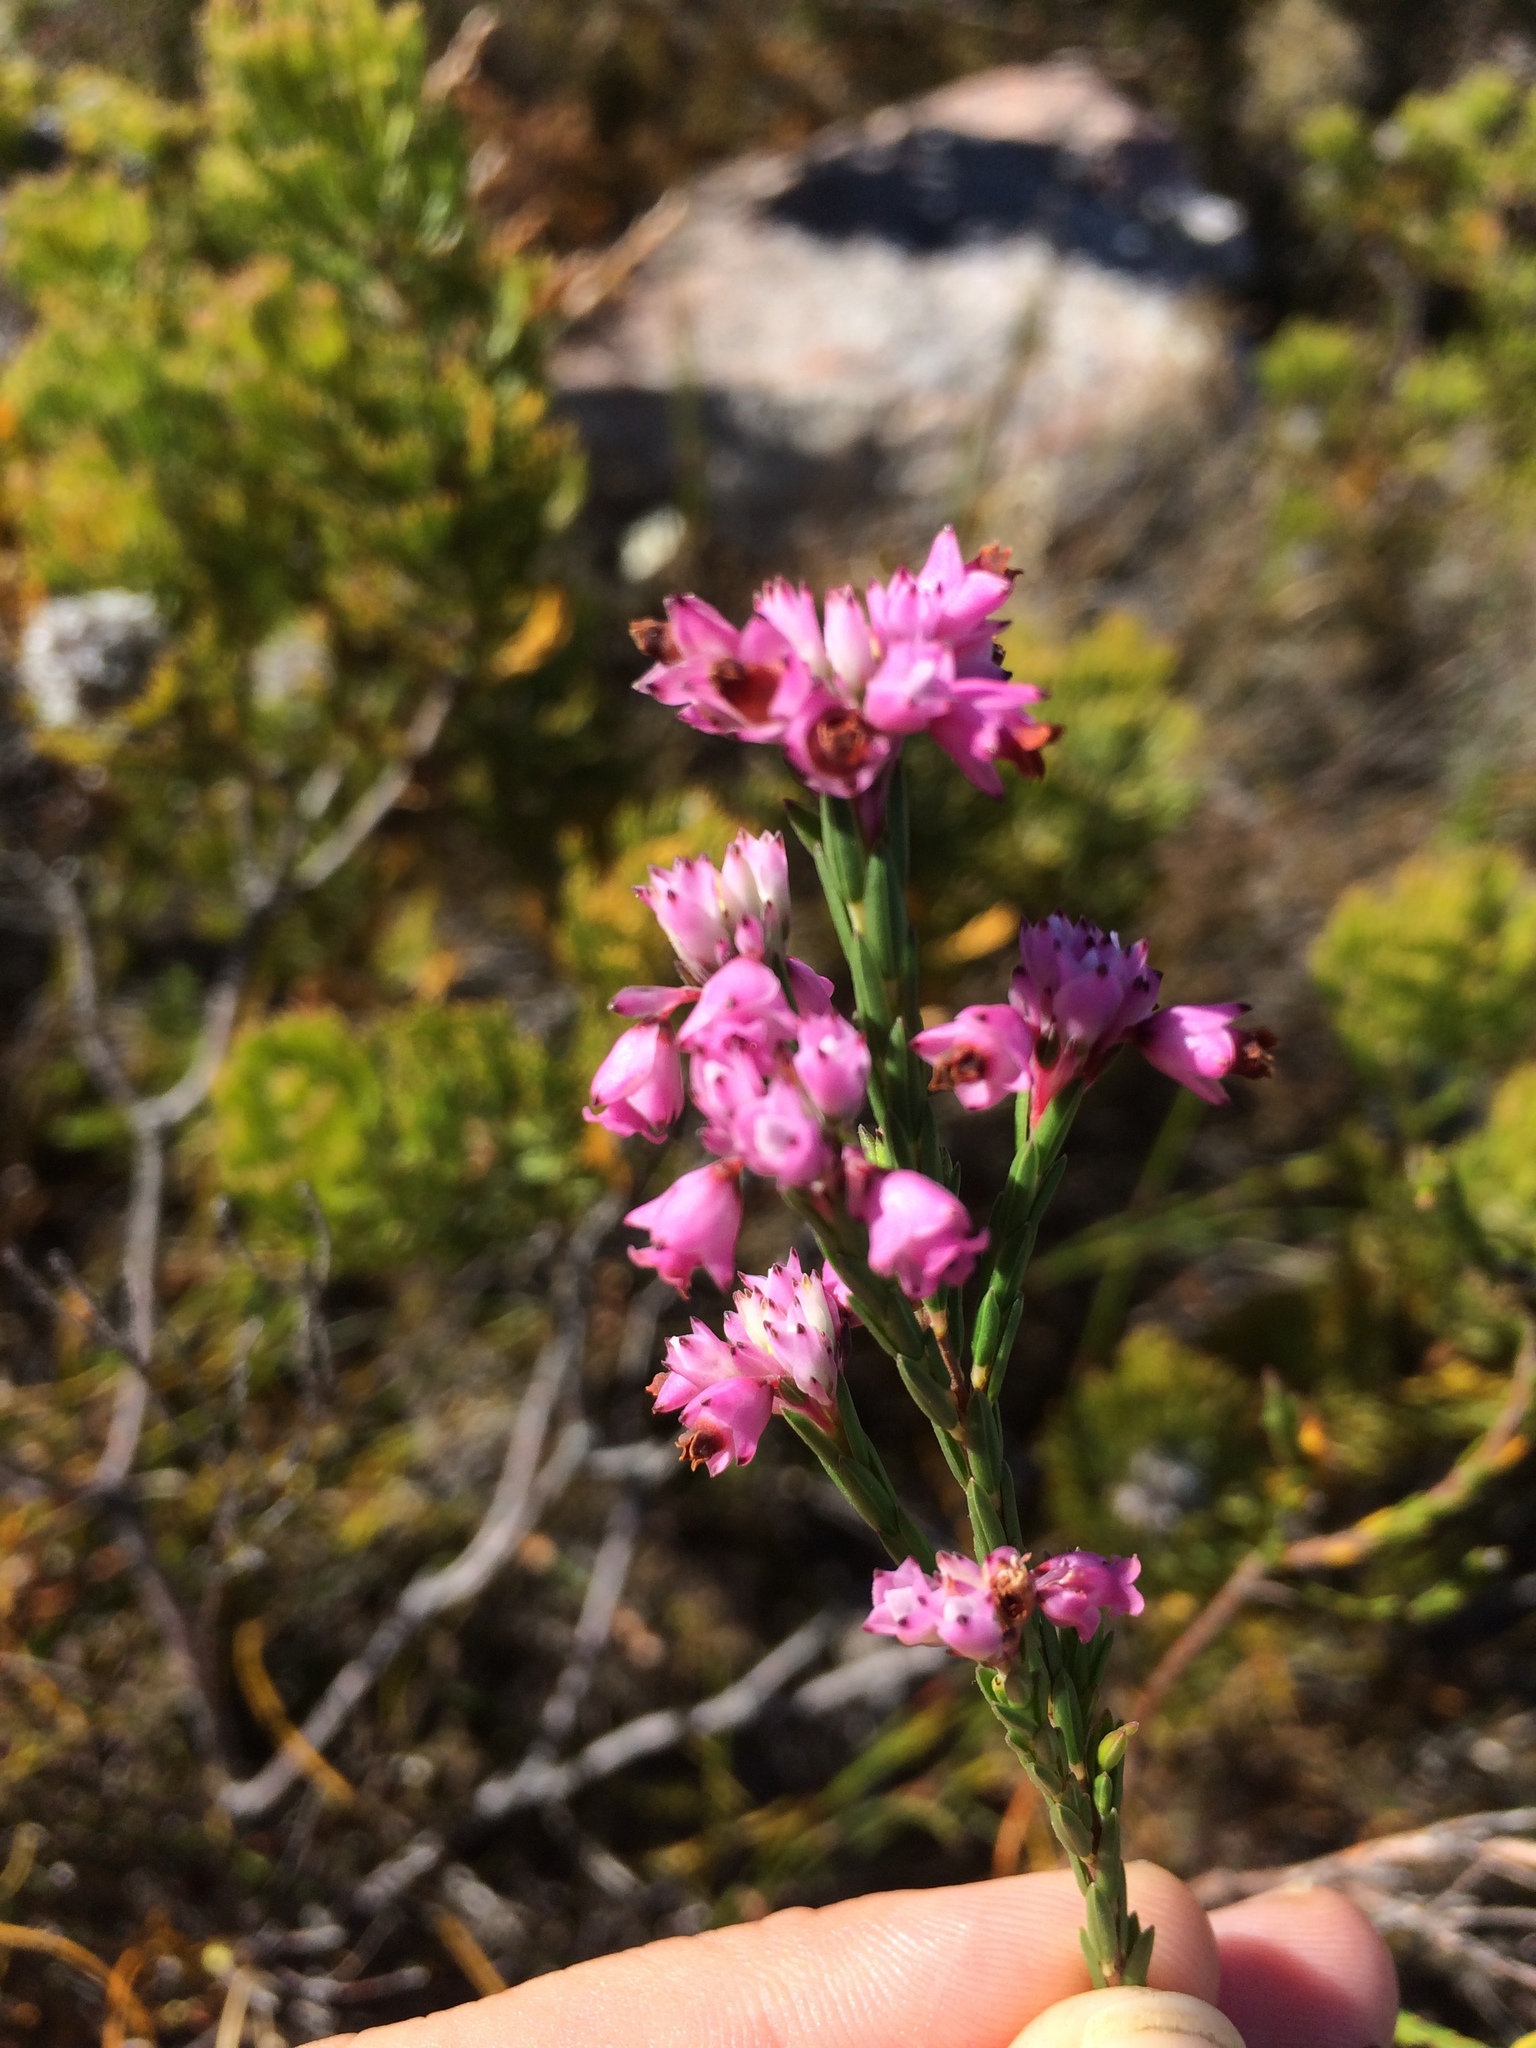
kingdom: Plantae
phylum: Tracheophyta
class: Magnoliopsida
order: Ericales
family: Ericaceae
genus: Erica
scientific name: Erica corifolia
